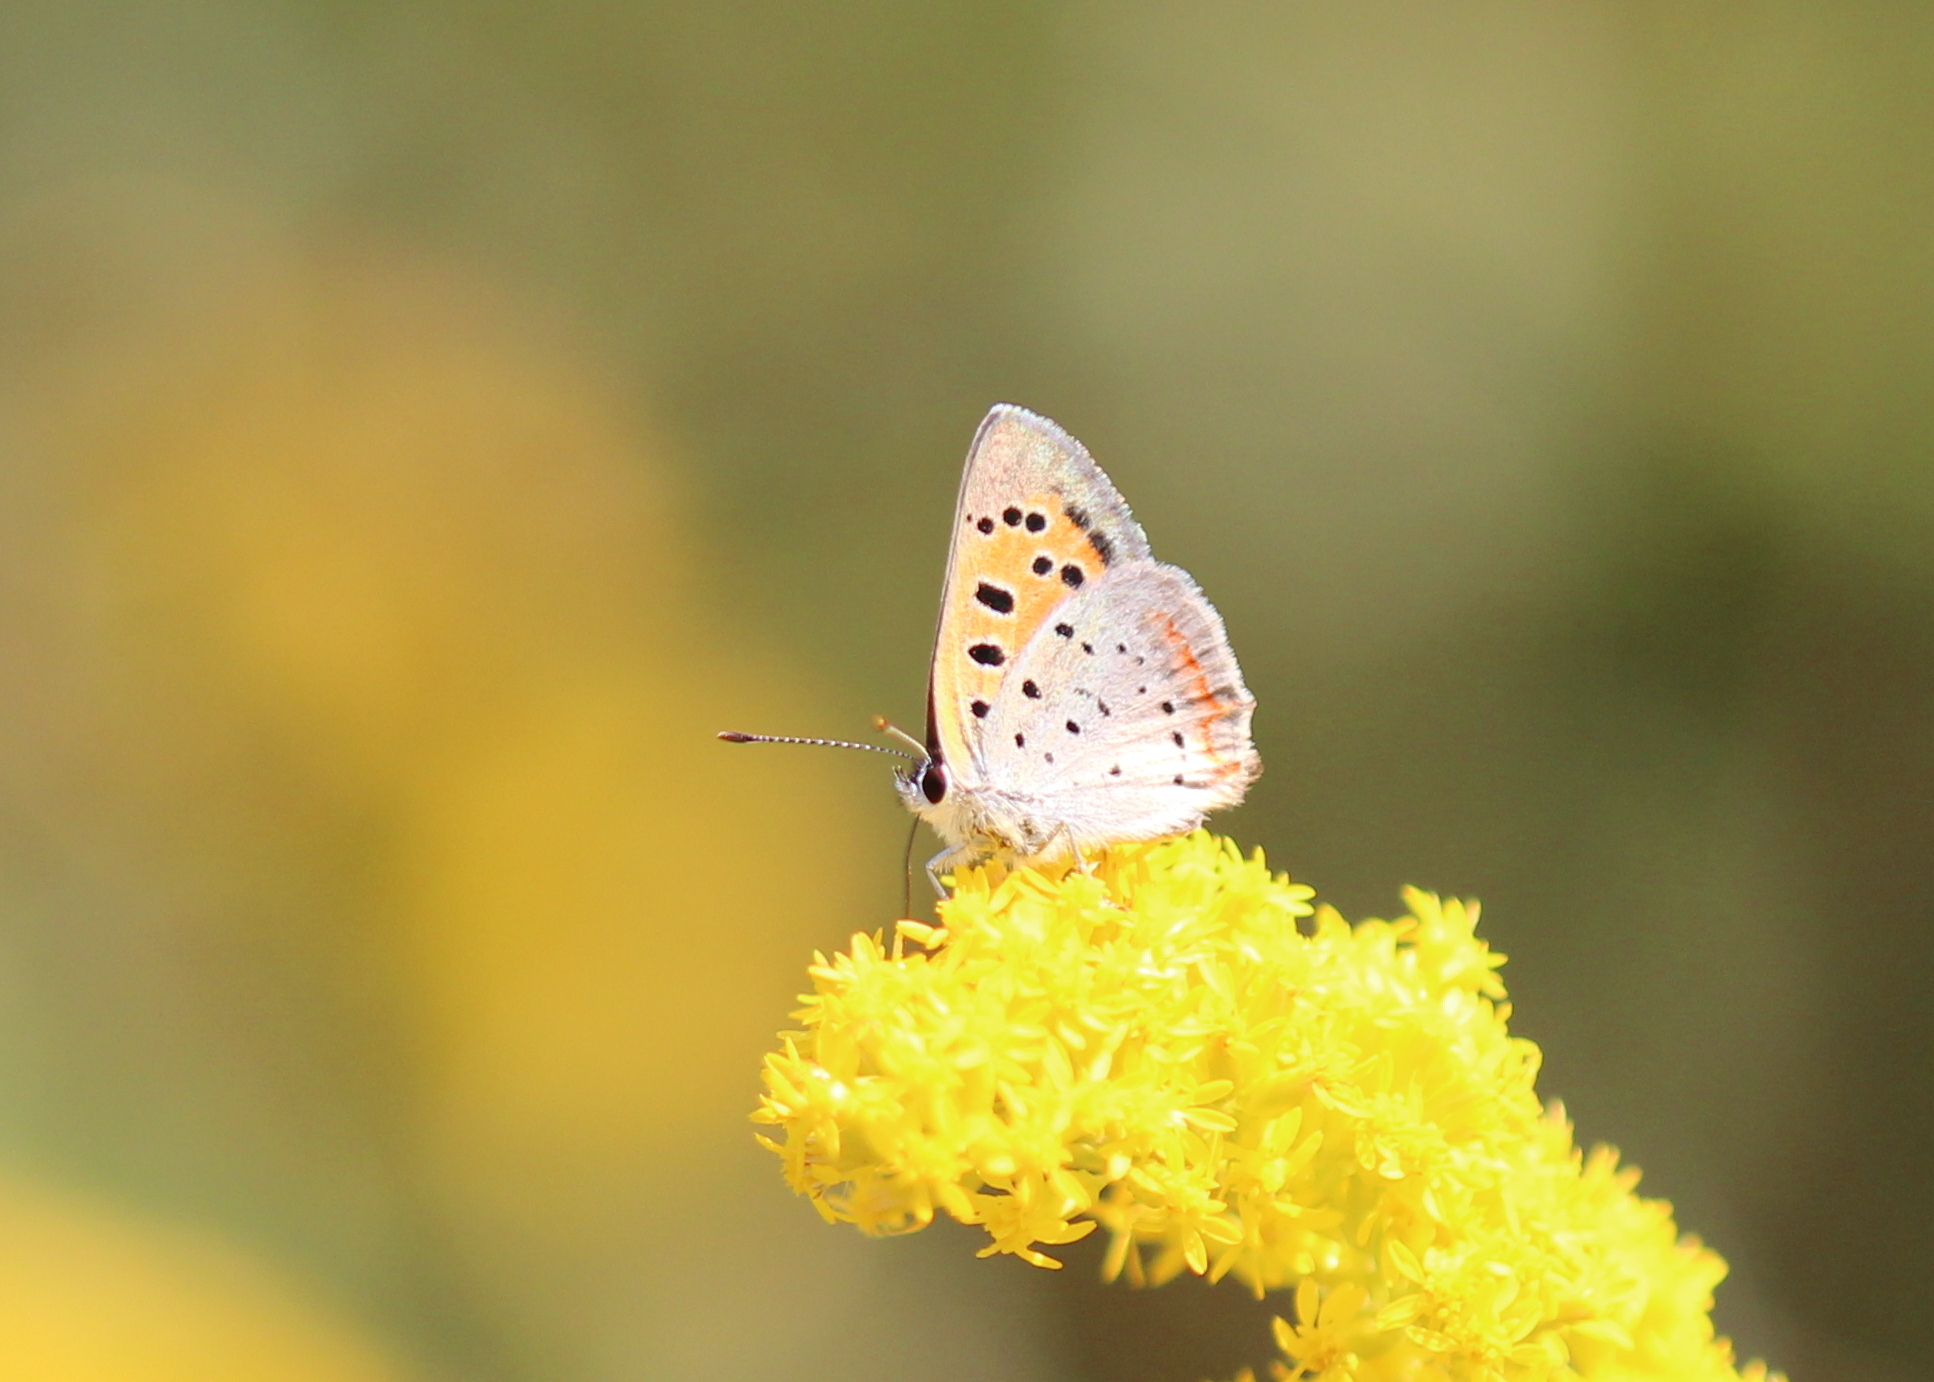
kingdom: Animalia
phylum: Arthropoda
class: Insecta
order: Lepidoptera
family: Lycaenidae
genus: Lycaena
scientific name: Lycaena hypophlaeas
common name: American copper
